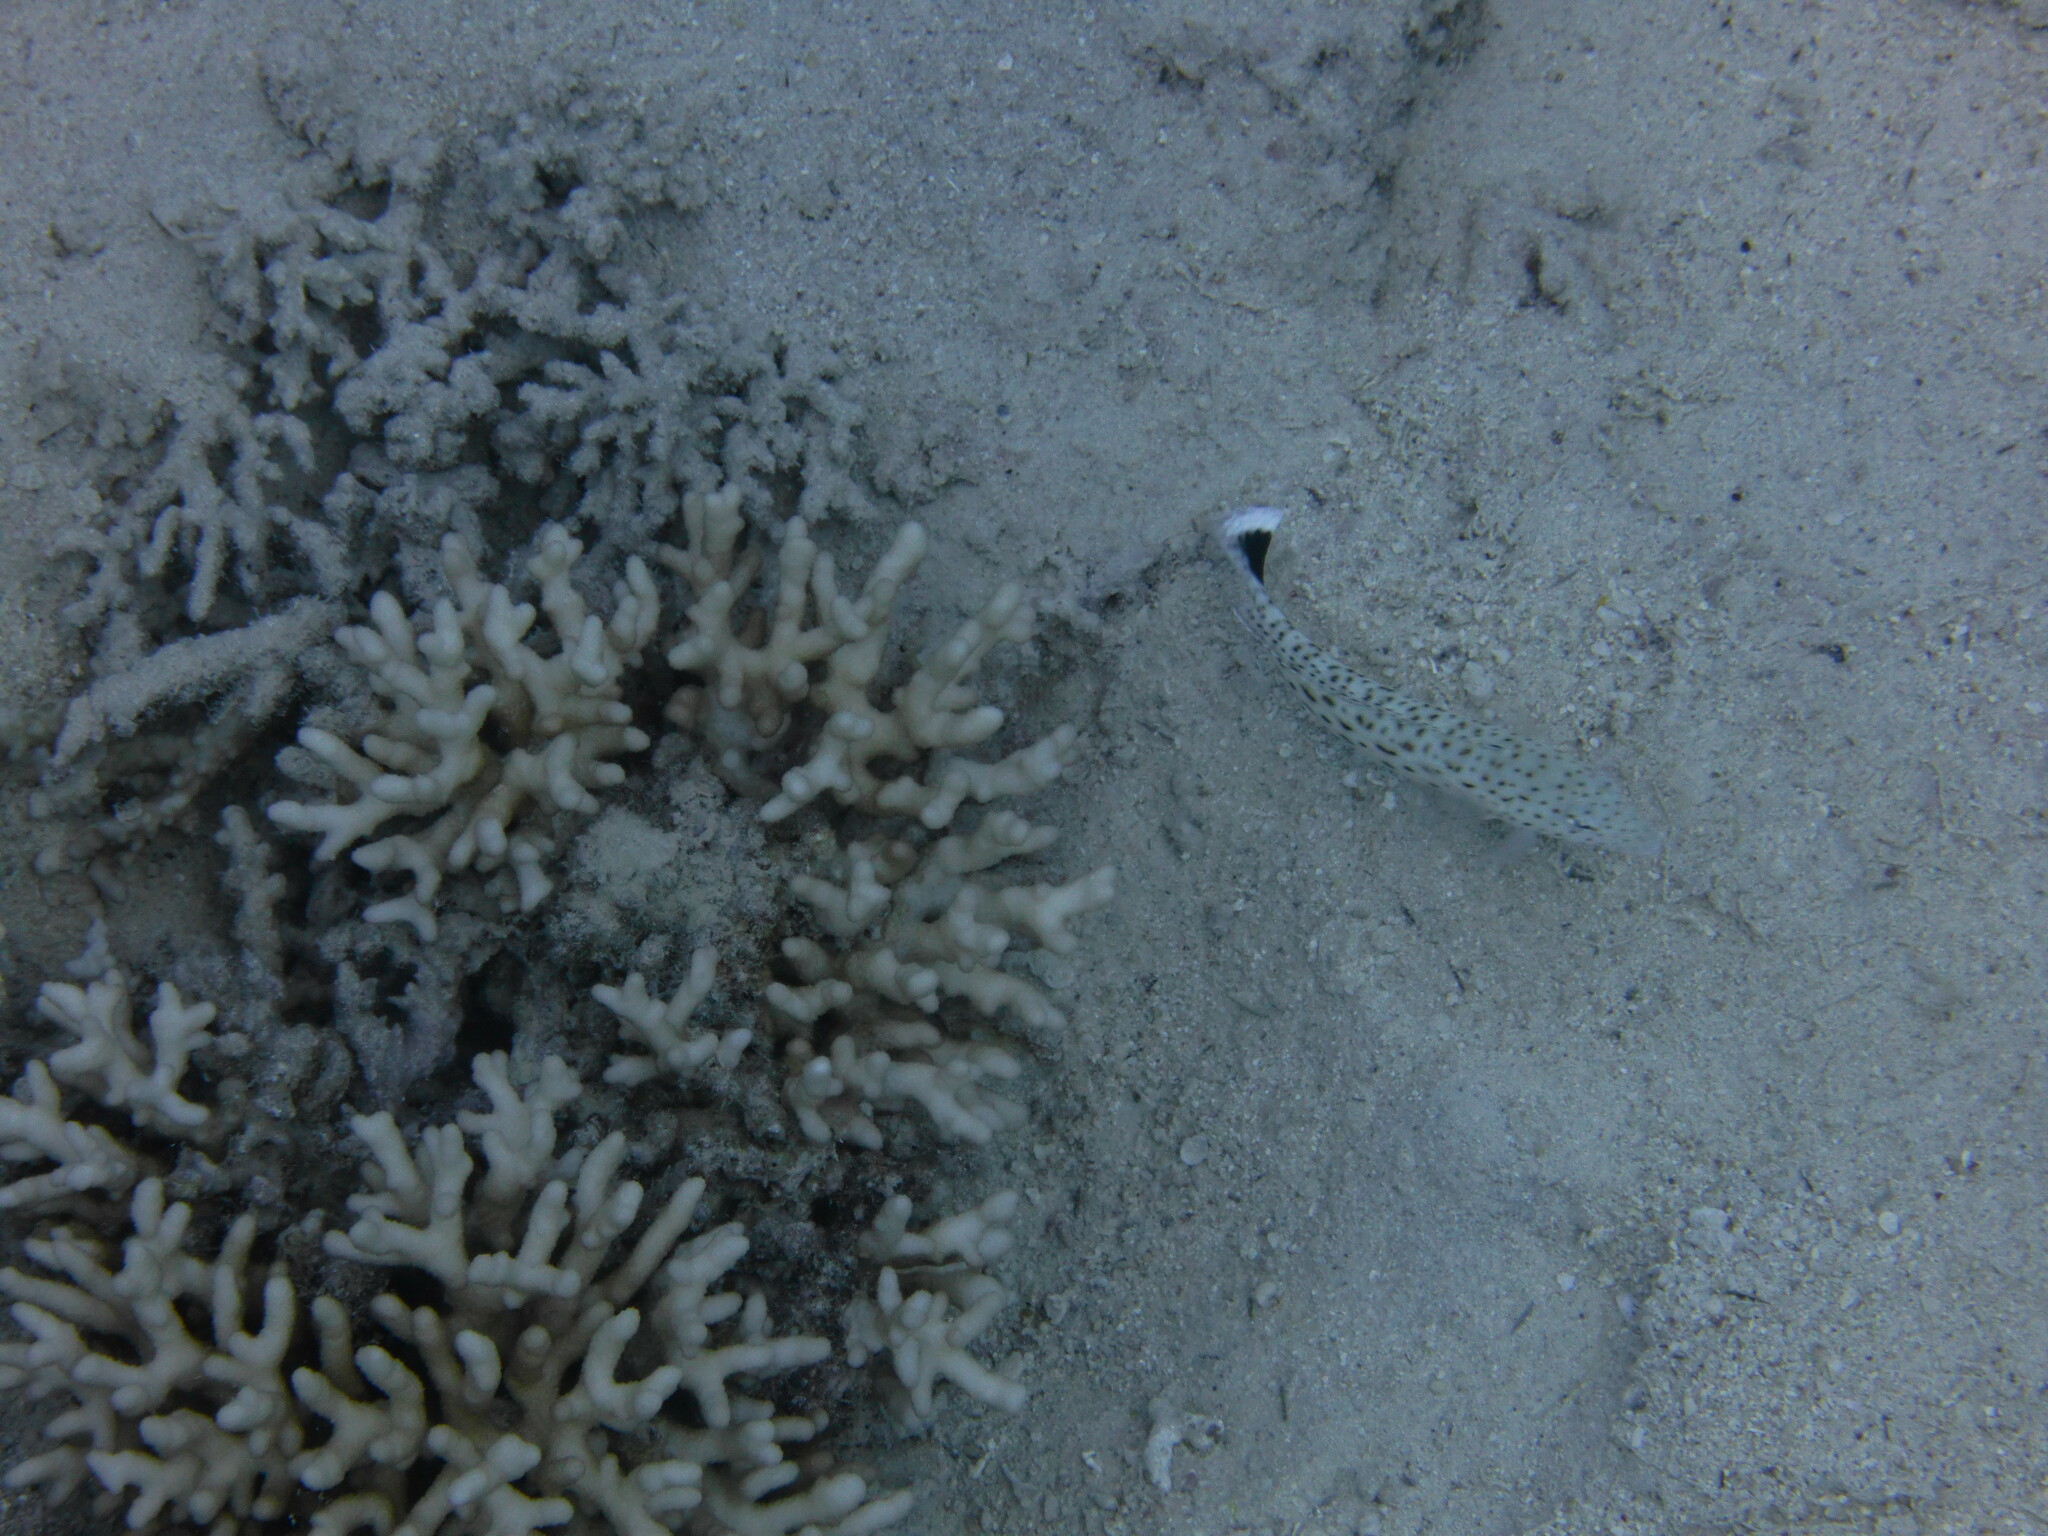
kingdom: Animalia
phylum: Chordata
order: Perciformes
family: Pinguipedidae
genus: Parapercis
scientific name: Parapercis hexophtalma
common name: Speckled sandperch
